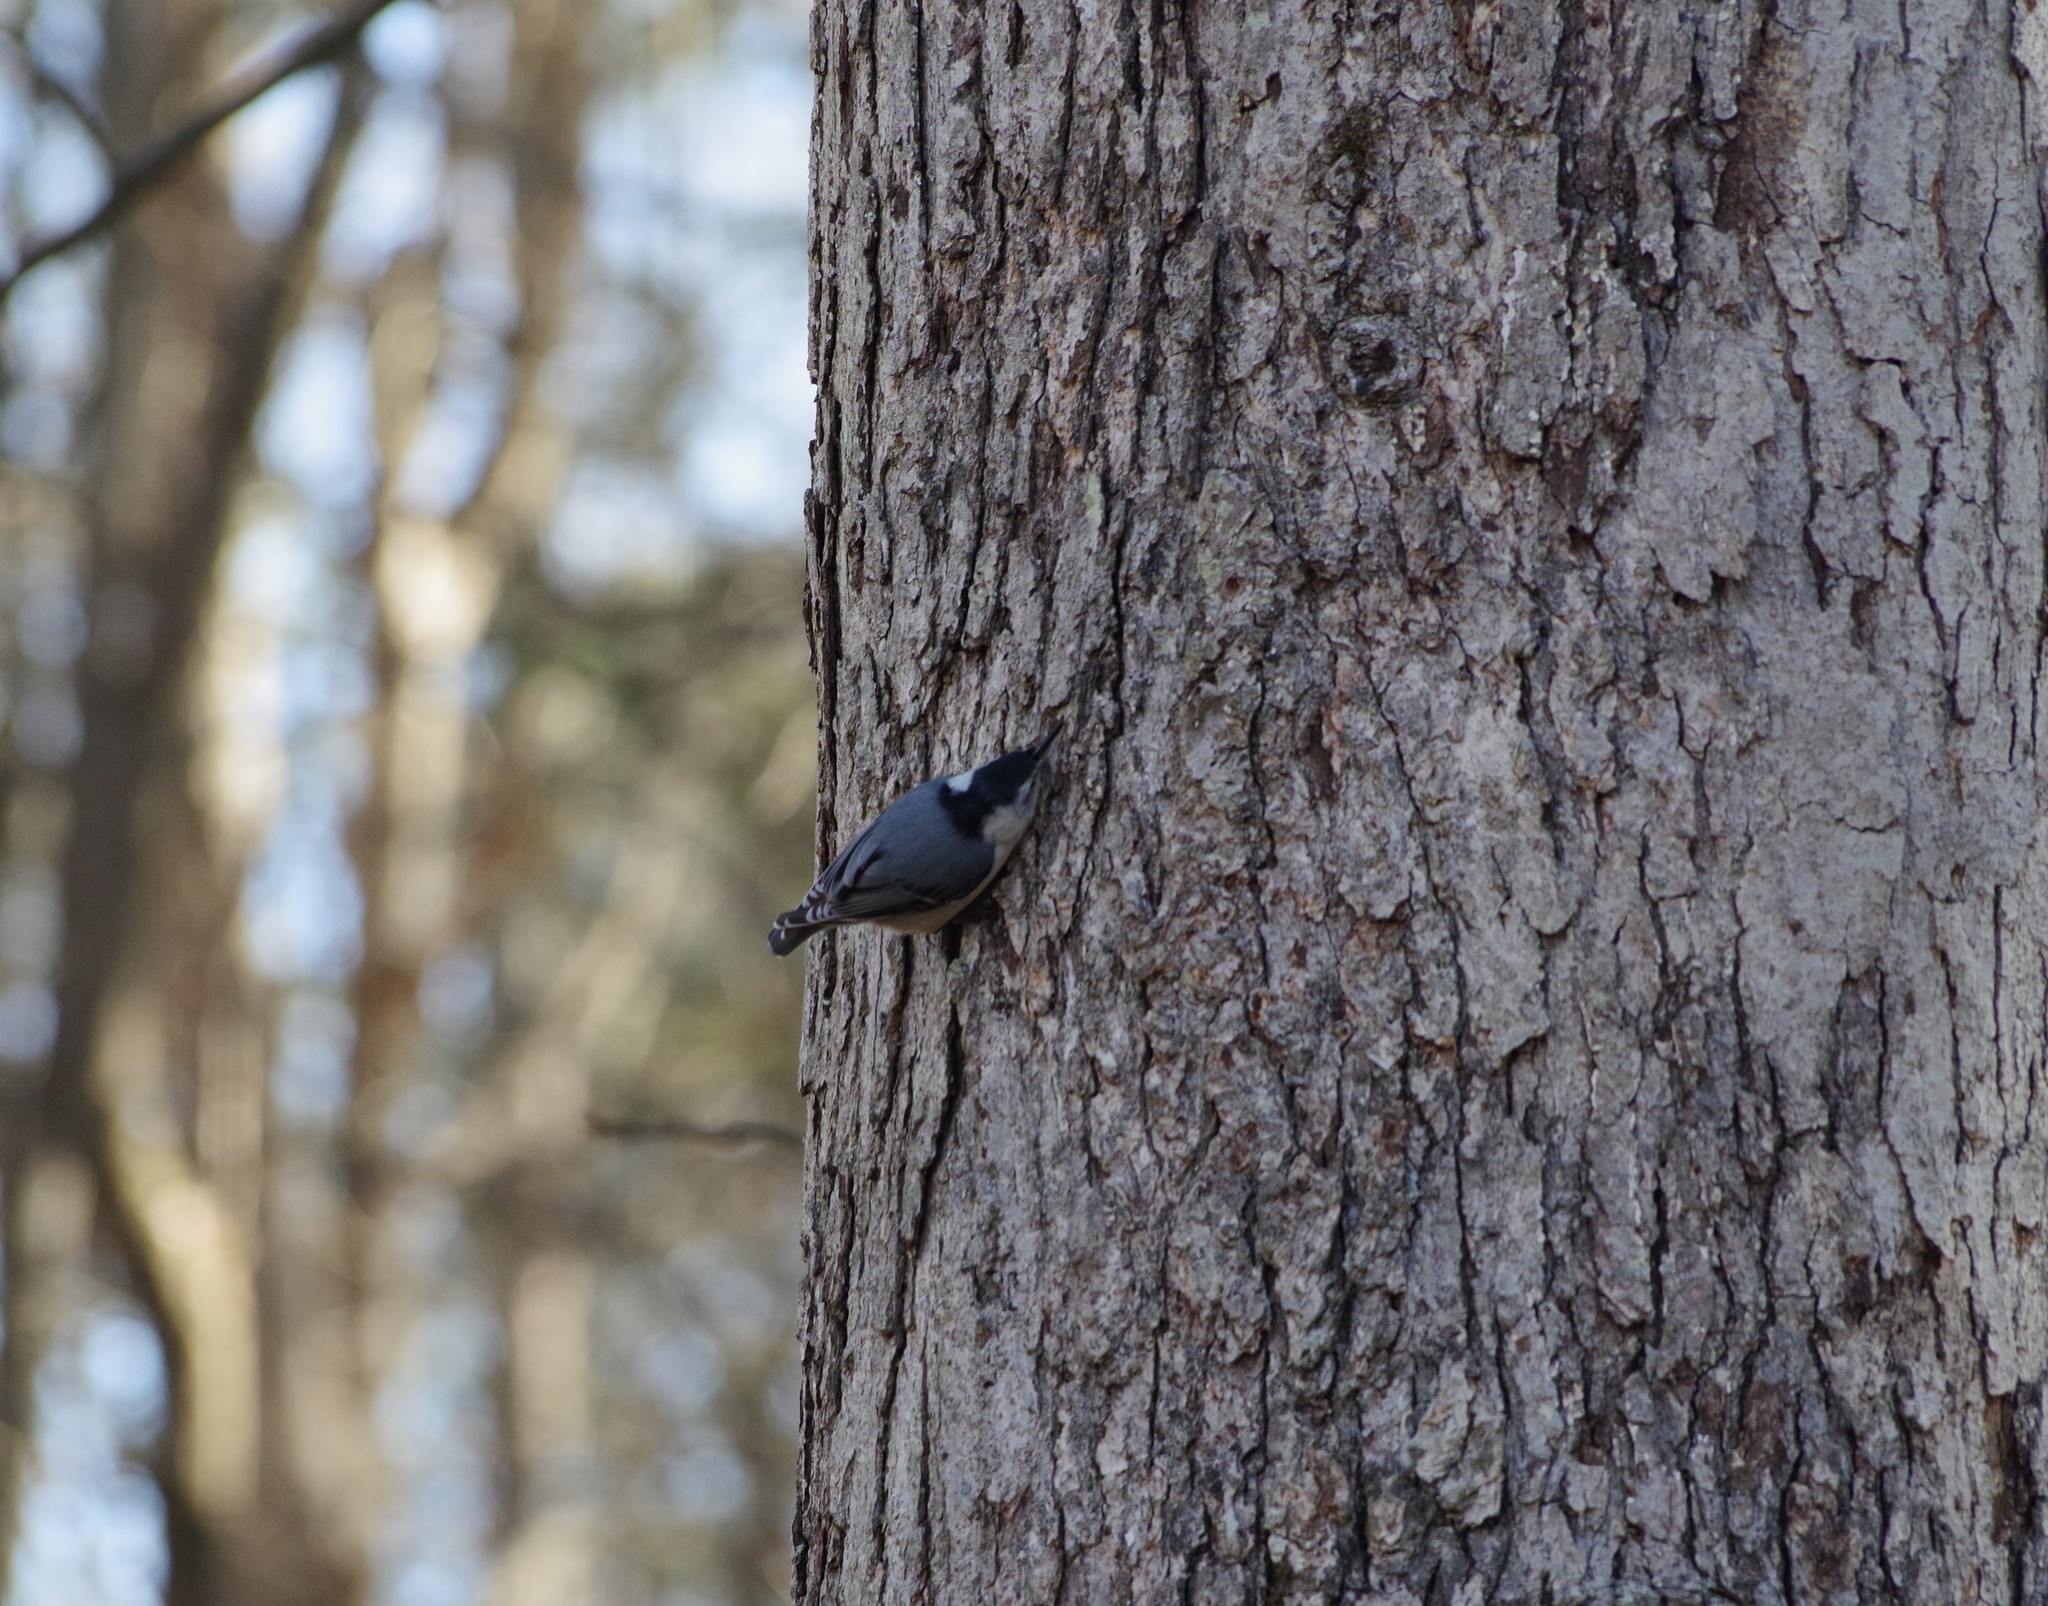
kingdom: Animalia
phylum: Chordata
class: Aves
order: Passeriformes
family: Sittidae
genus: Sitta
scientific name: Sitta carolinensis
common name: White-breasted nuthatch
